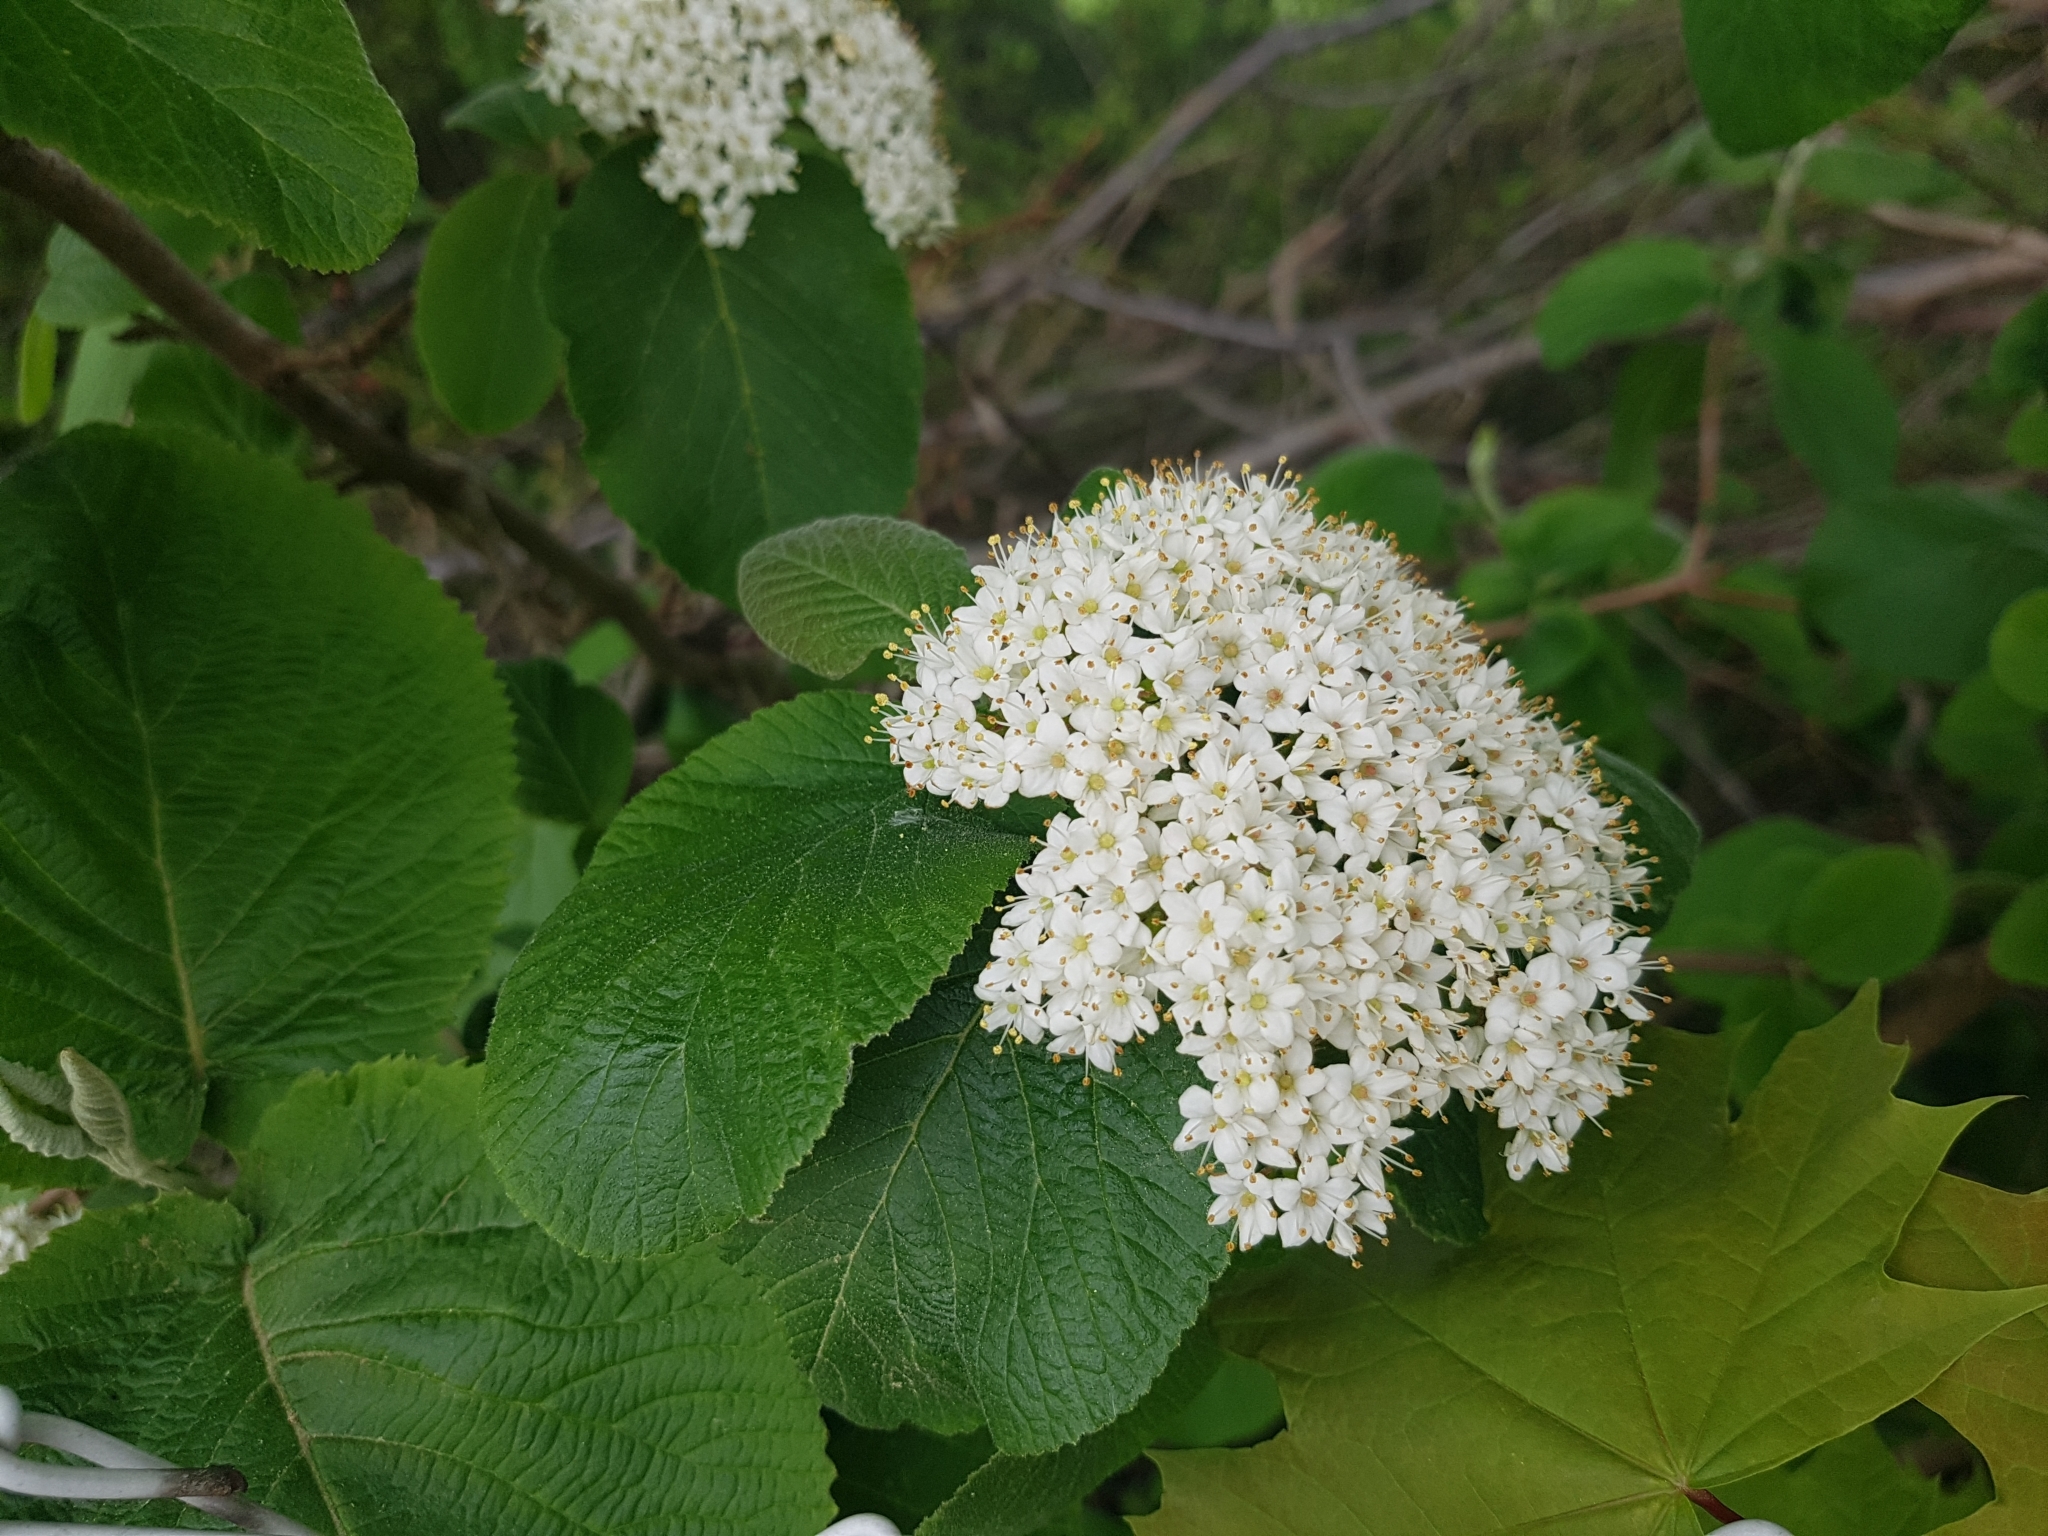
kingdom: Plantae
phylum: Tracheophyta
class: Magnoliopsida
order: Dipsacales
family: Viburnaceae
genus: Viburnum
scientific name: Viburnum lantana
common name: Wayfaring tree
